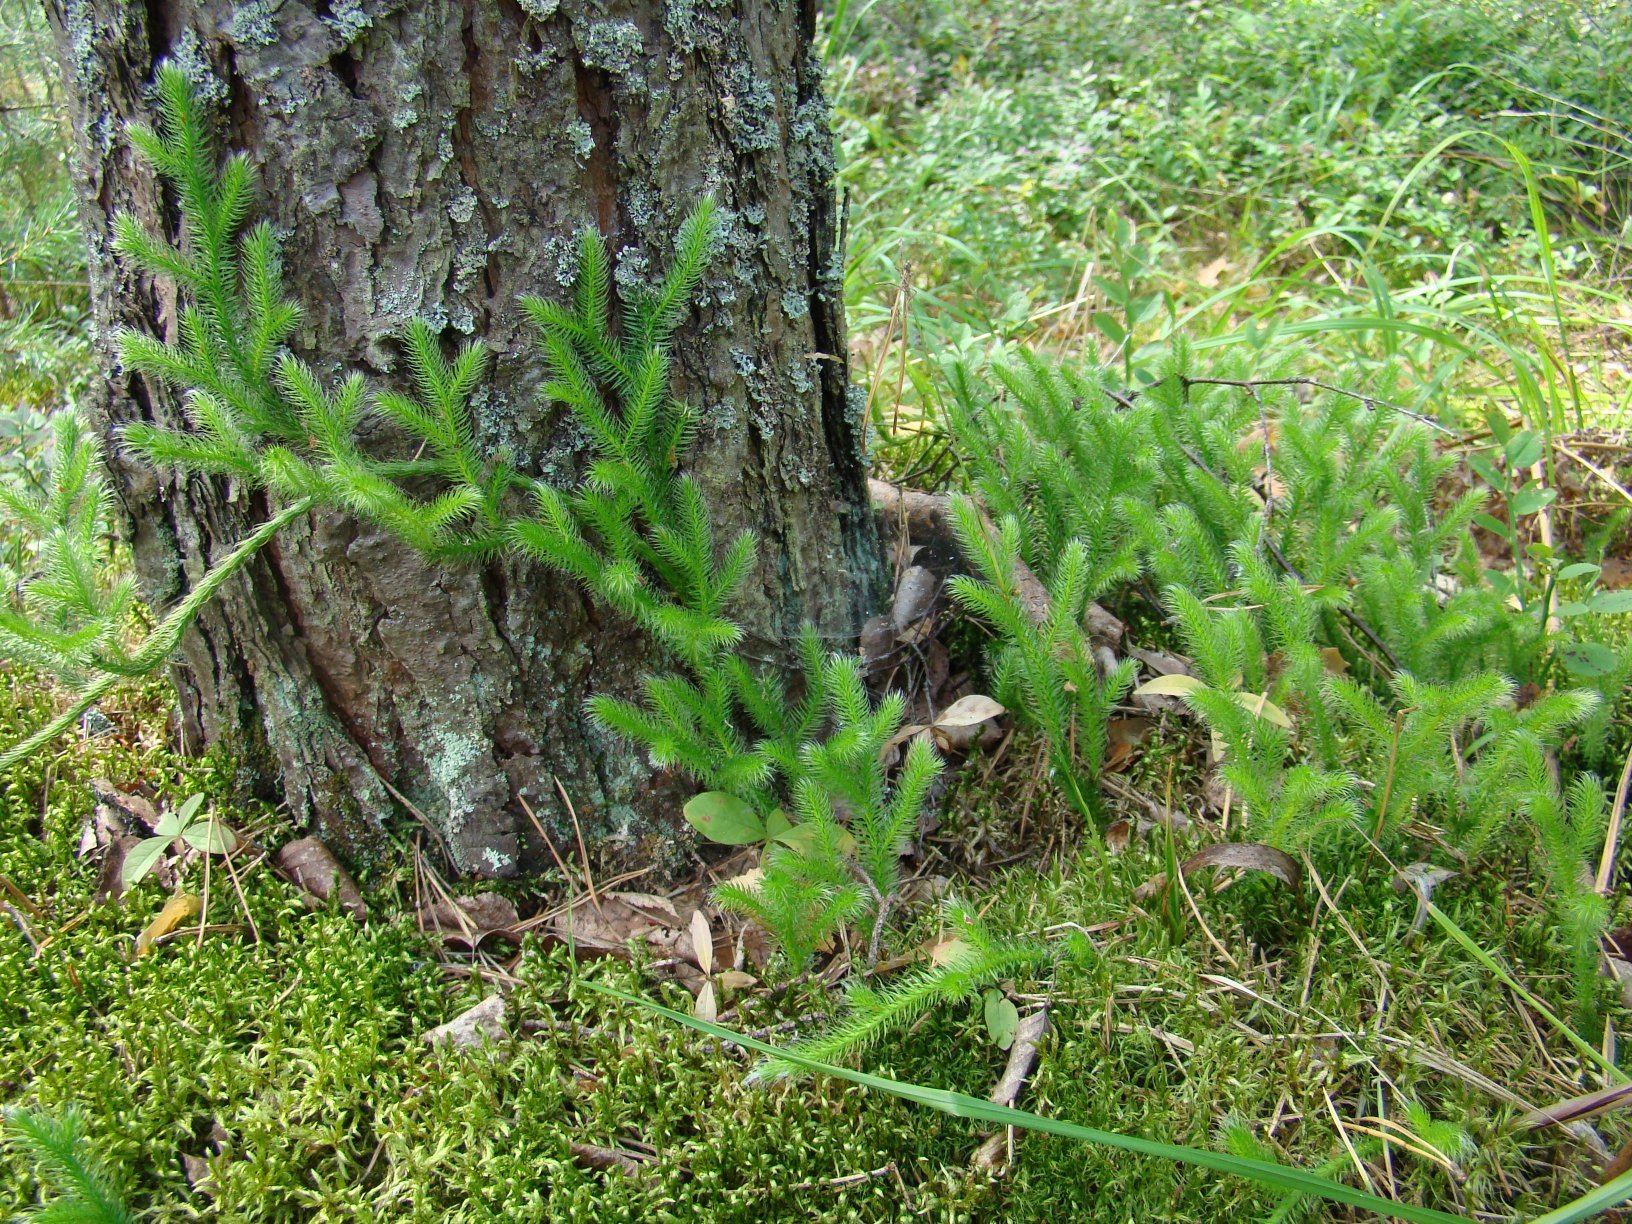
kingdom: Plantae
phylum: Tracheophyta
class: Lycopodiopsida
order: Lycopodiales
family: Lycopodiaceae
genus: Lycopodium
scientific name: Lycopodium clavatum
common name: Stag's-horn clubmoss
